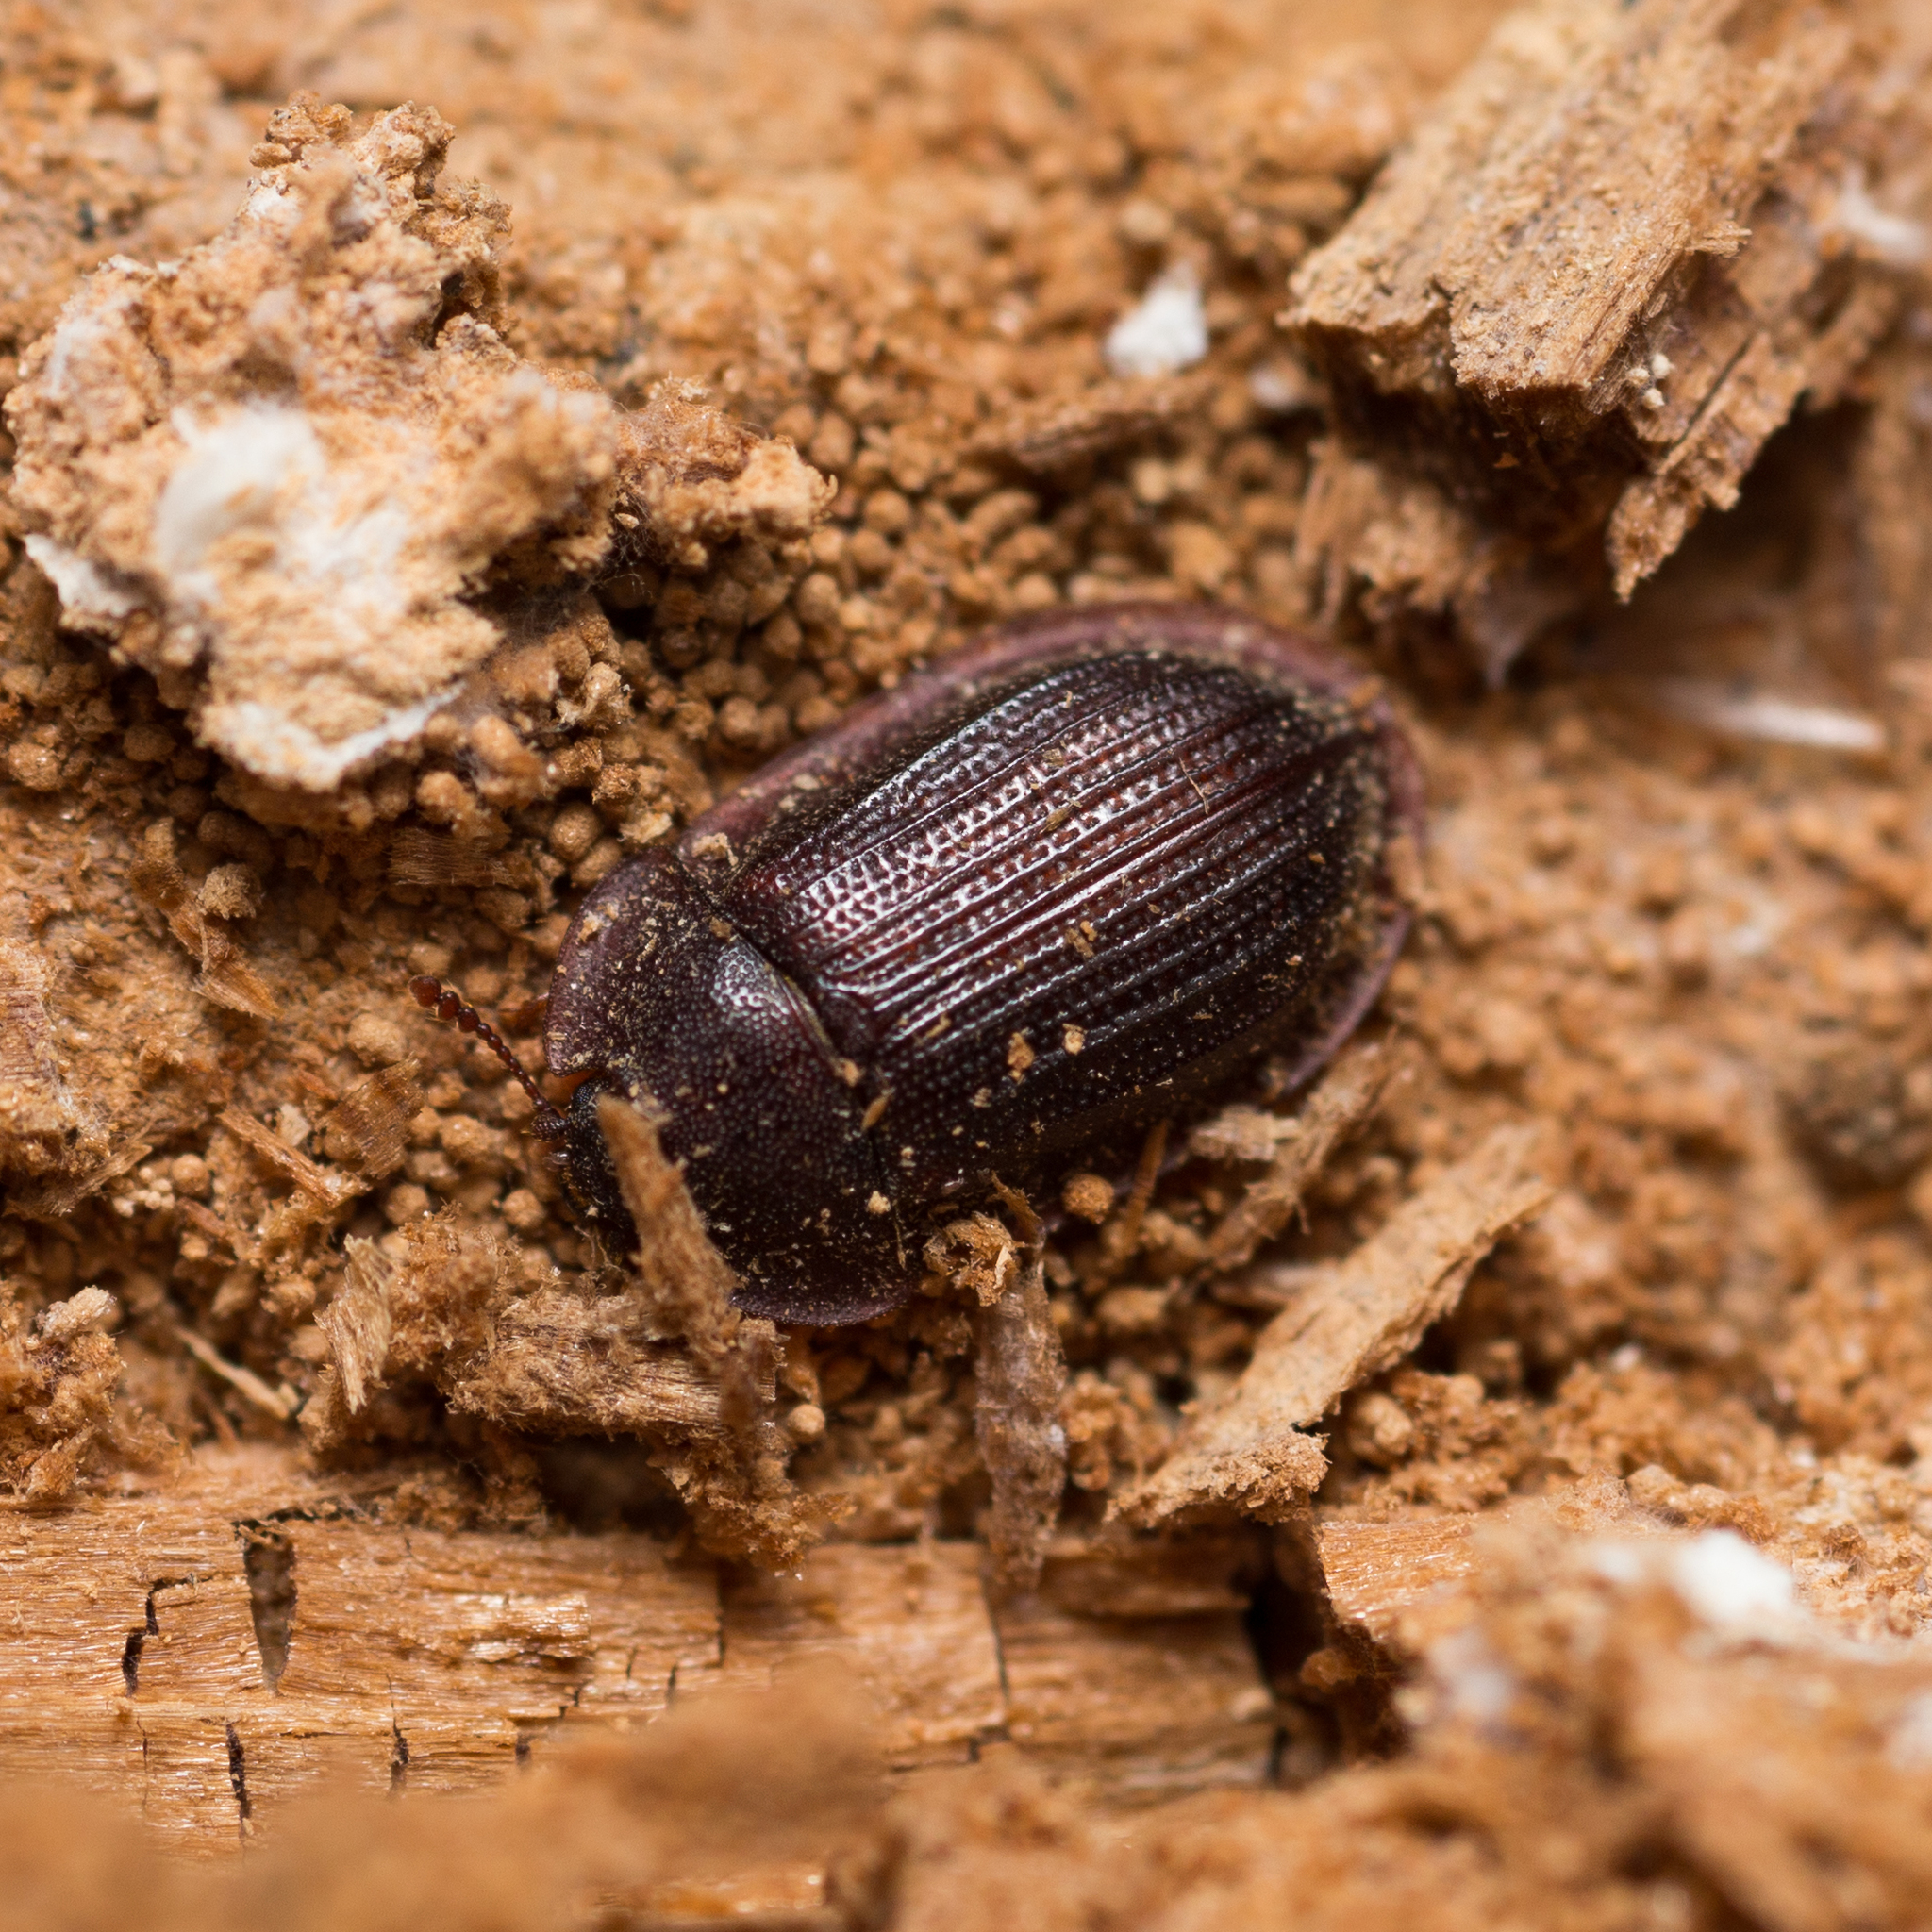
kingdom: Animalia
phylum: Arthropoda
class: Insecta
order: Coleoptera
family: Trogossitidae
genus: Peltis
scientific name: Peltis ferruginea
